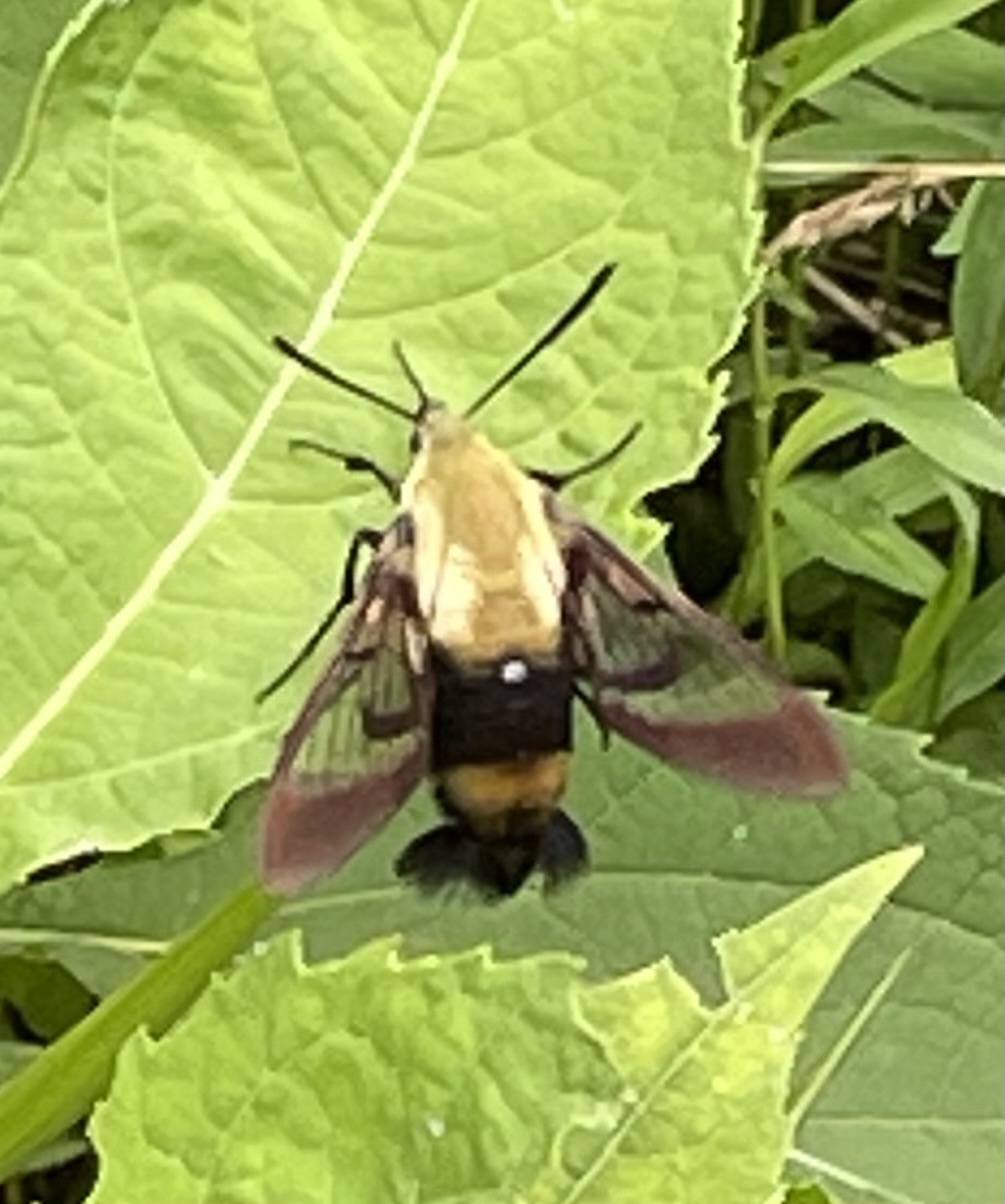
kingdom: Animalia
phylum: Arthropoda
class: Insecta
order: Lepidoptera
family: Sphingidae
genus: Hemaris
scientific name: Hemaris diffinis
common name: Bumblebee moth
